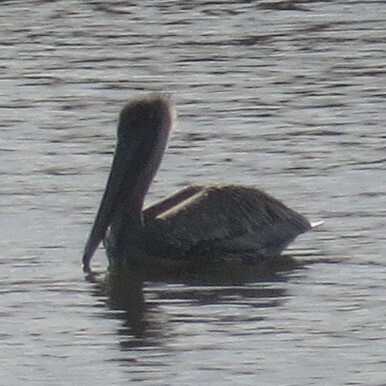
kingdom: Animalia
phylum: Chordata
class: Aves
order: Pelecaniformes
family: Pelecanidae
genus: Pelecanus
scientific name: Pelecanus occidentalis
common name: Brown pelican
